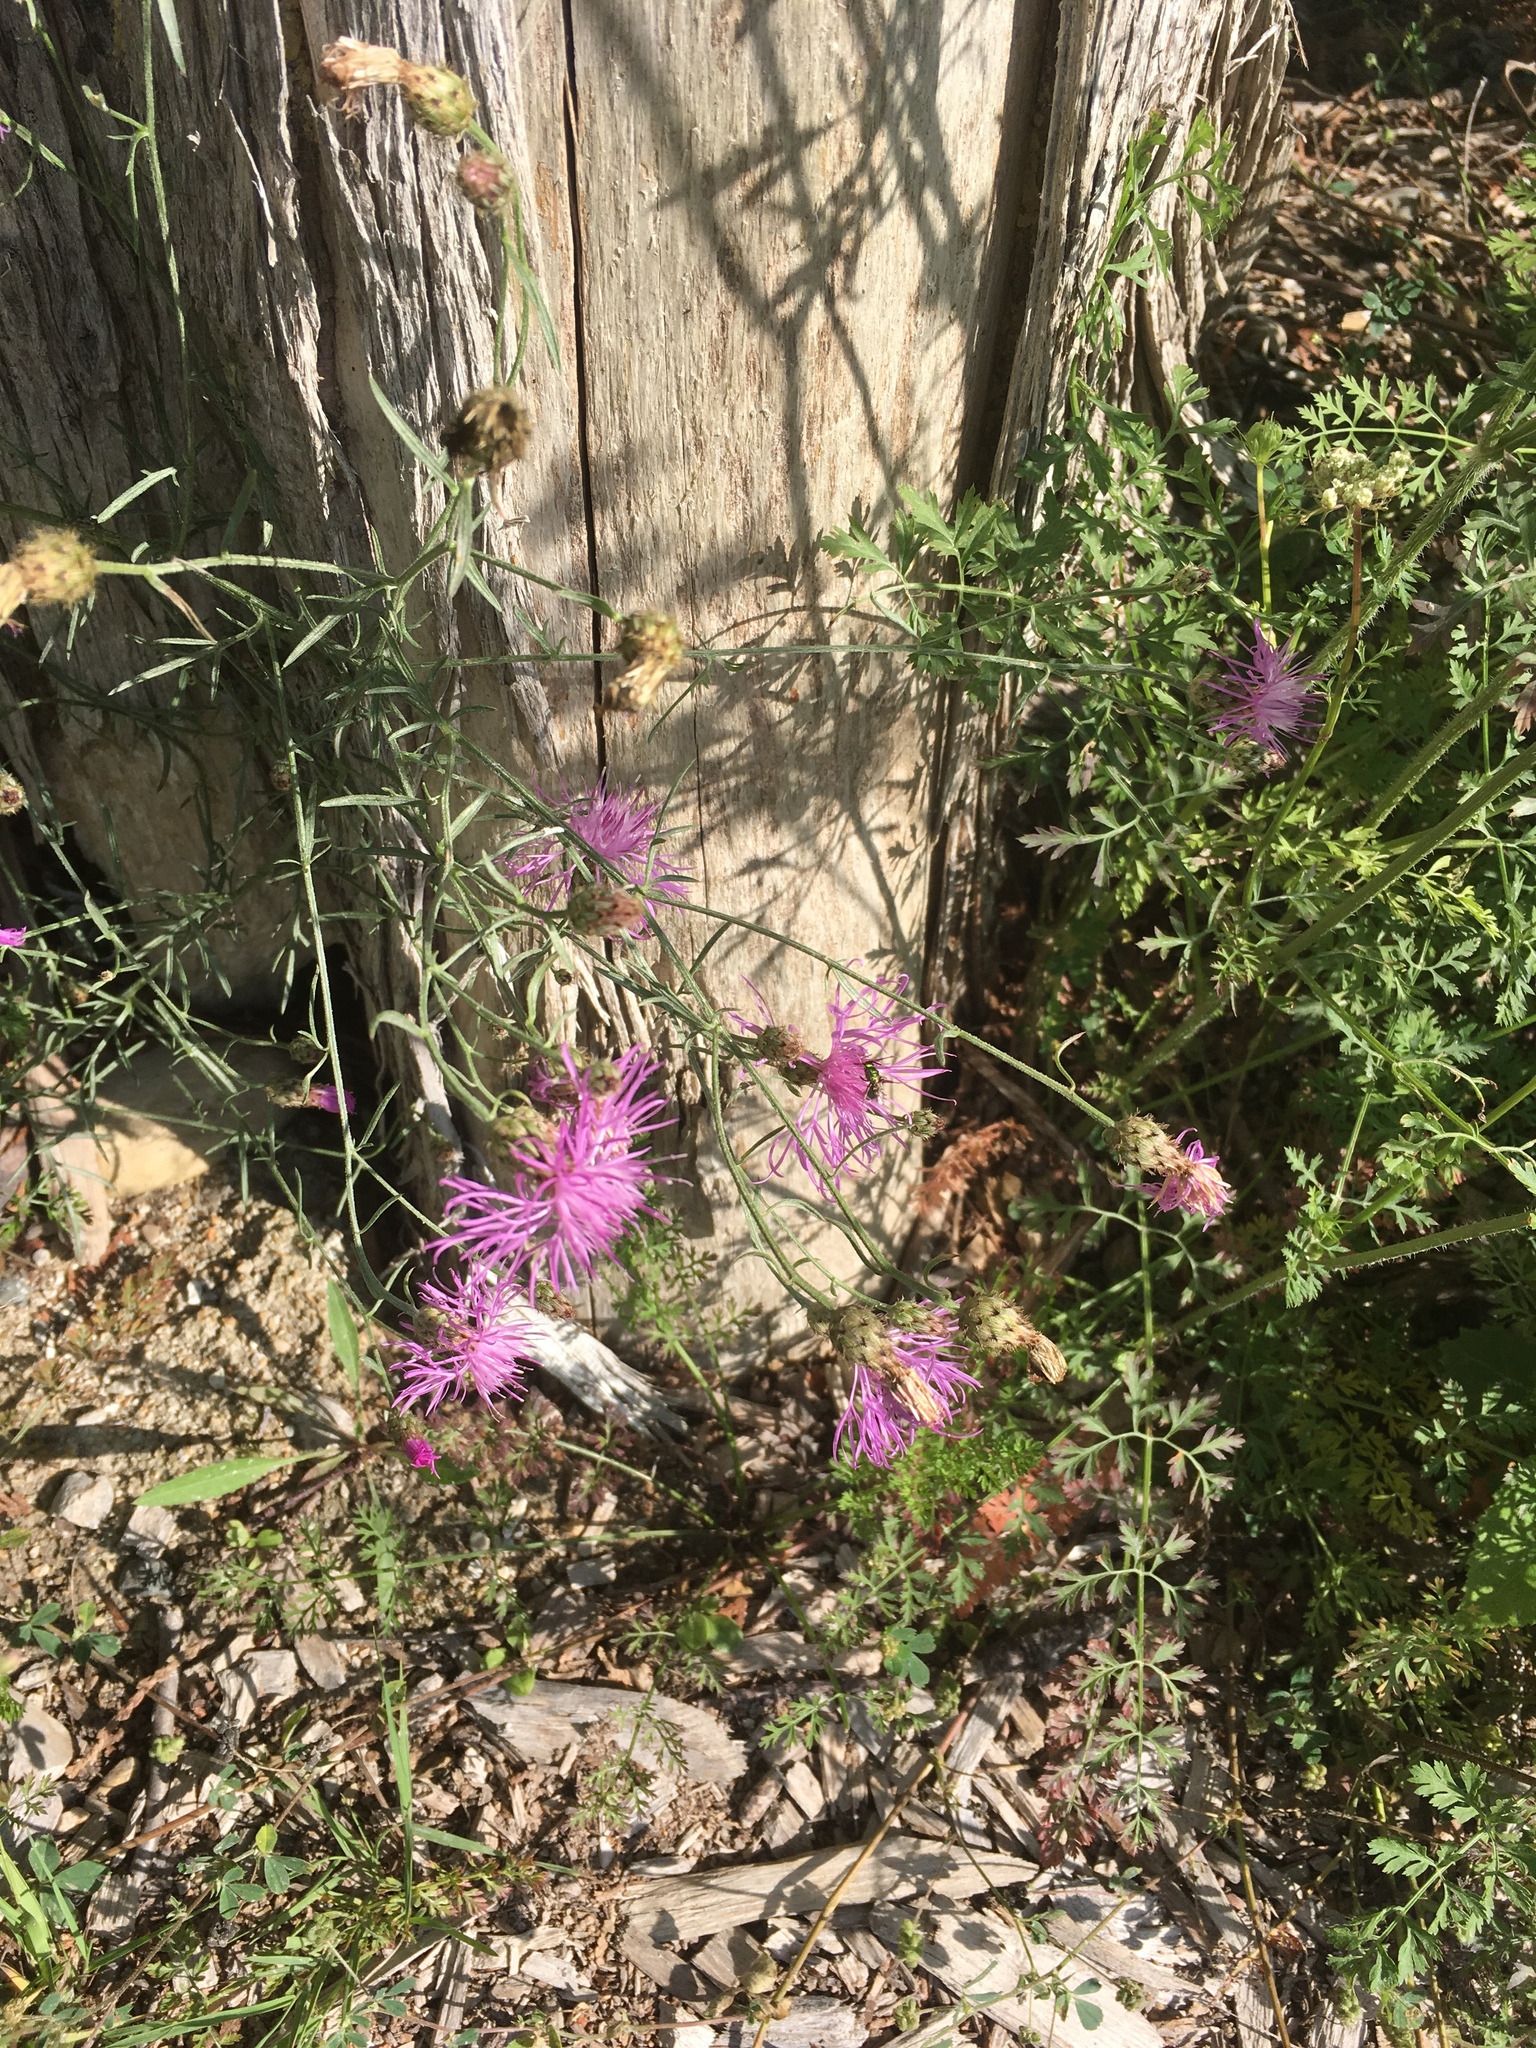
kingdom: Plantae
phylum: Tracheophyta
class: Magnoliopsida
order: Asterales
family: Asteraceae
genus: Centaurea
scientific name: Centaurea stoebe
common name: Spotted knapweed
